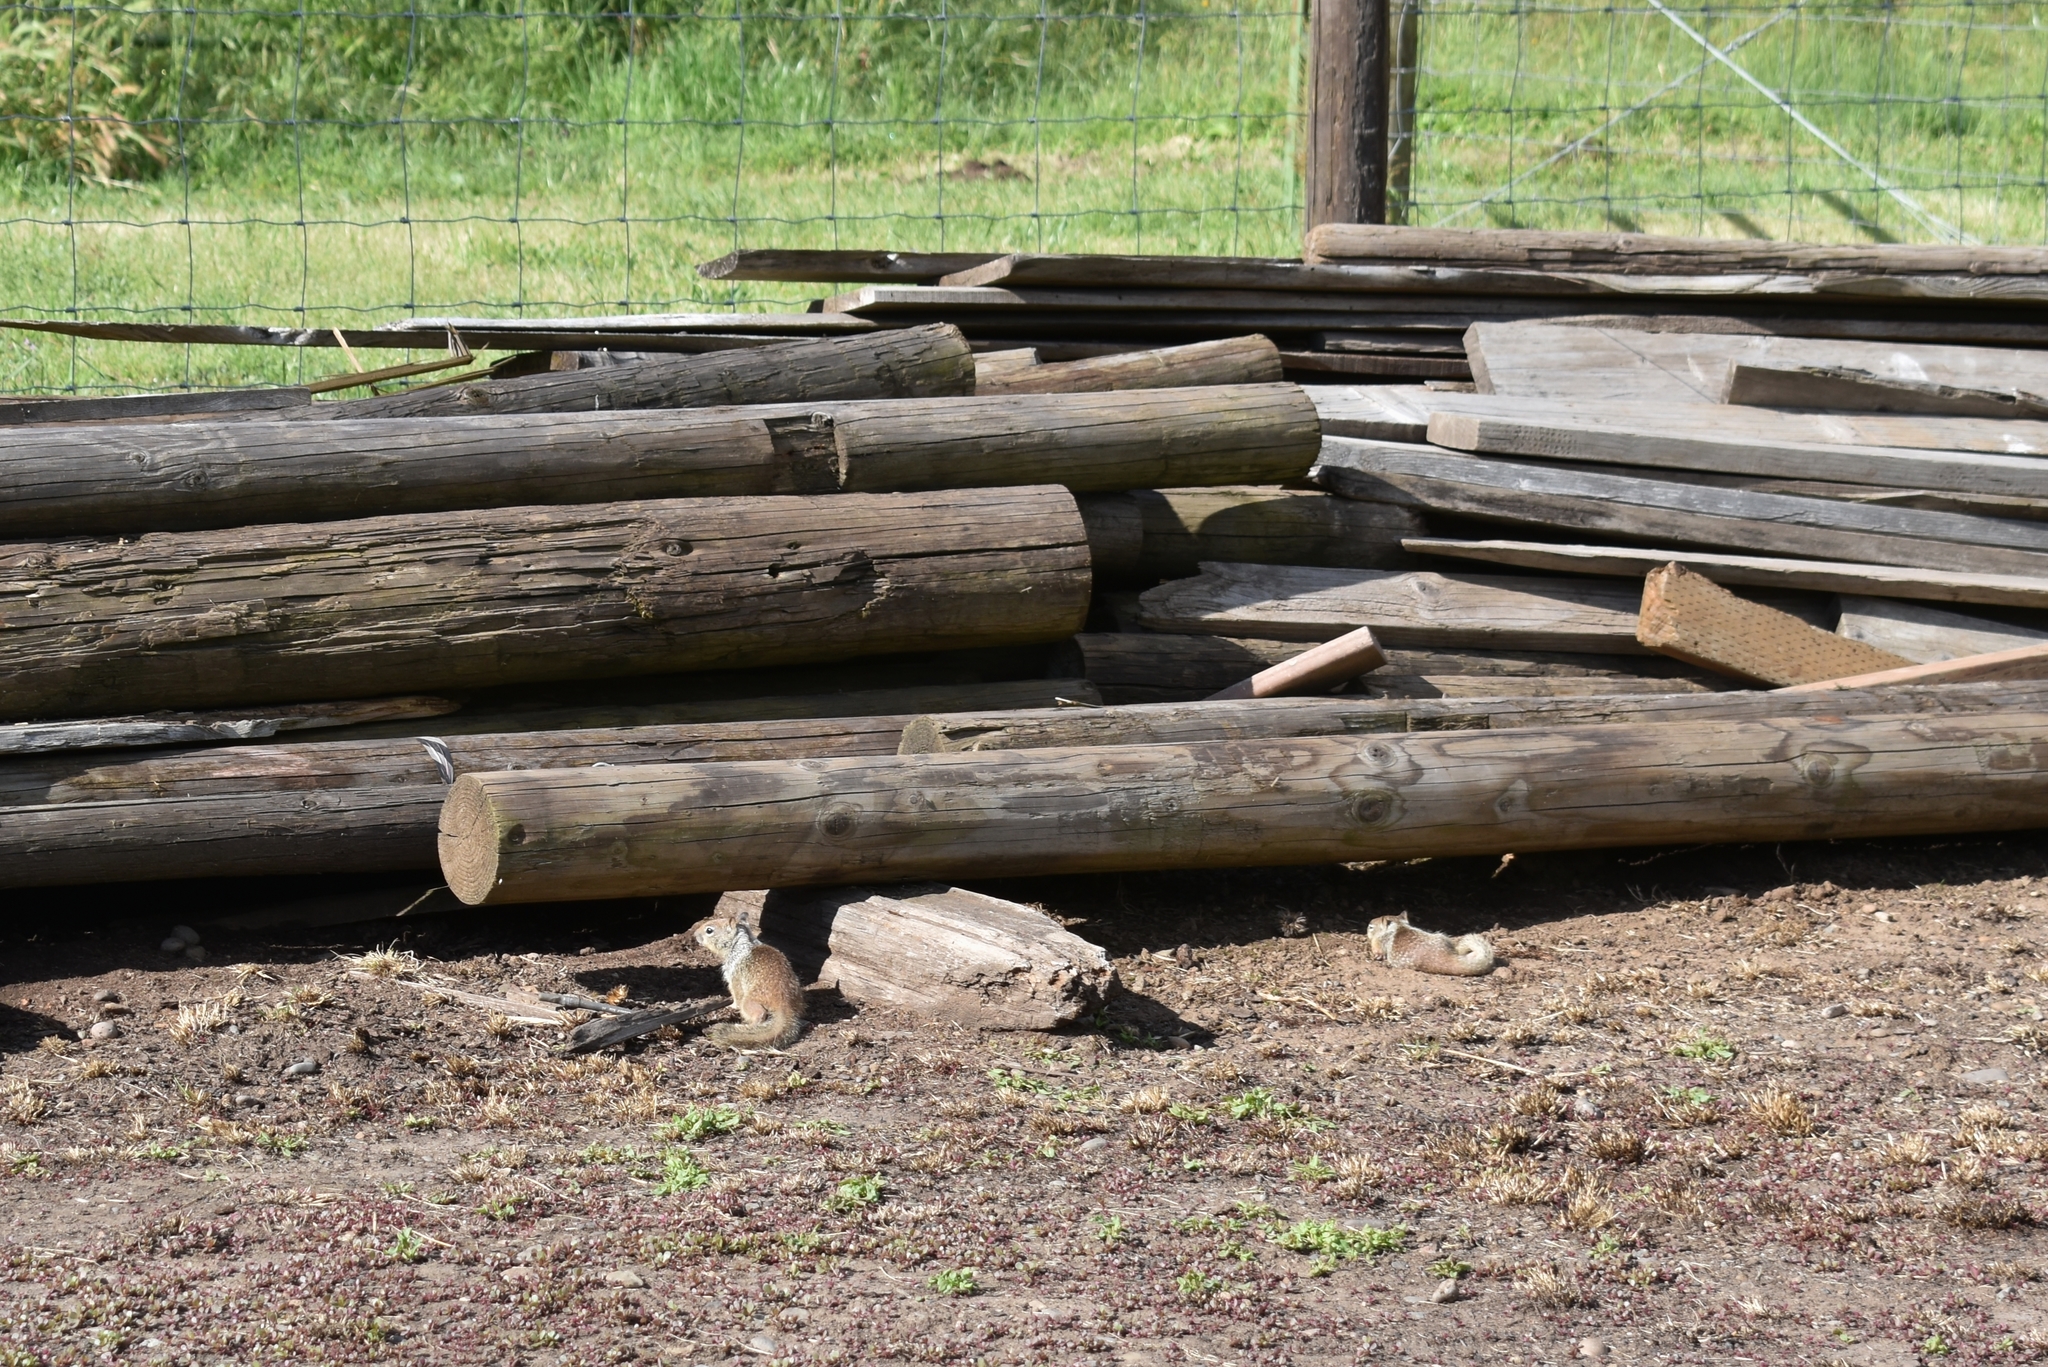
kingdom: Animalia
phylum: Chordata
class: Mammalia
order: Rodentia
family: Sciuridae
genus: Otospermophilus
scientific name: Otospermophilus beecheyi
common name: California ground squirrel
